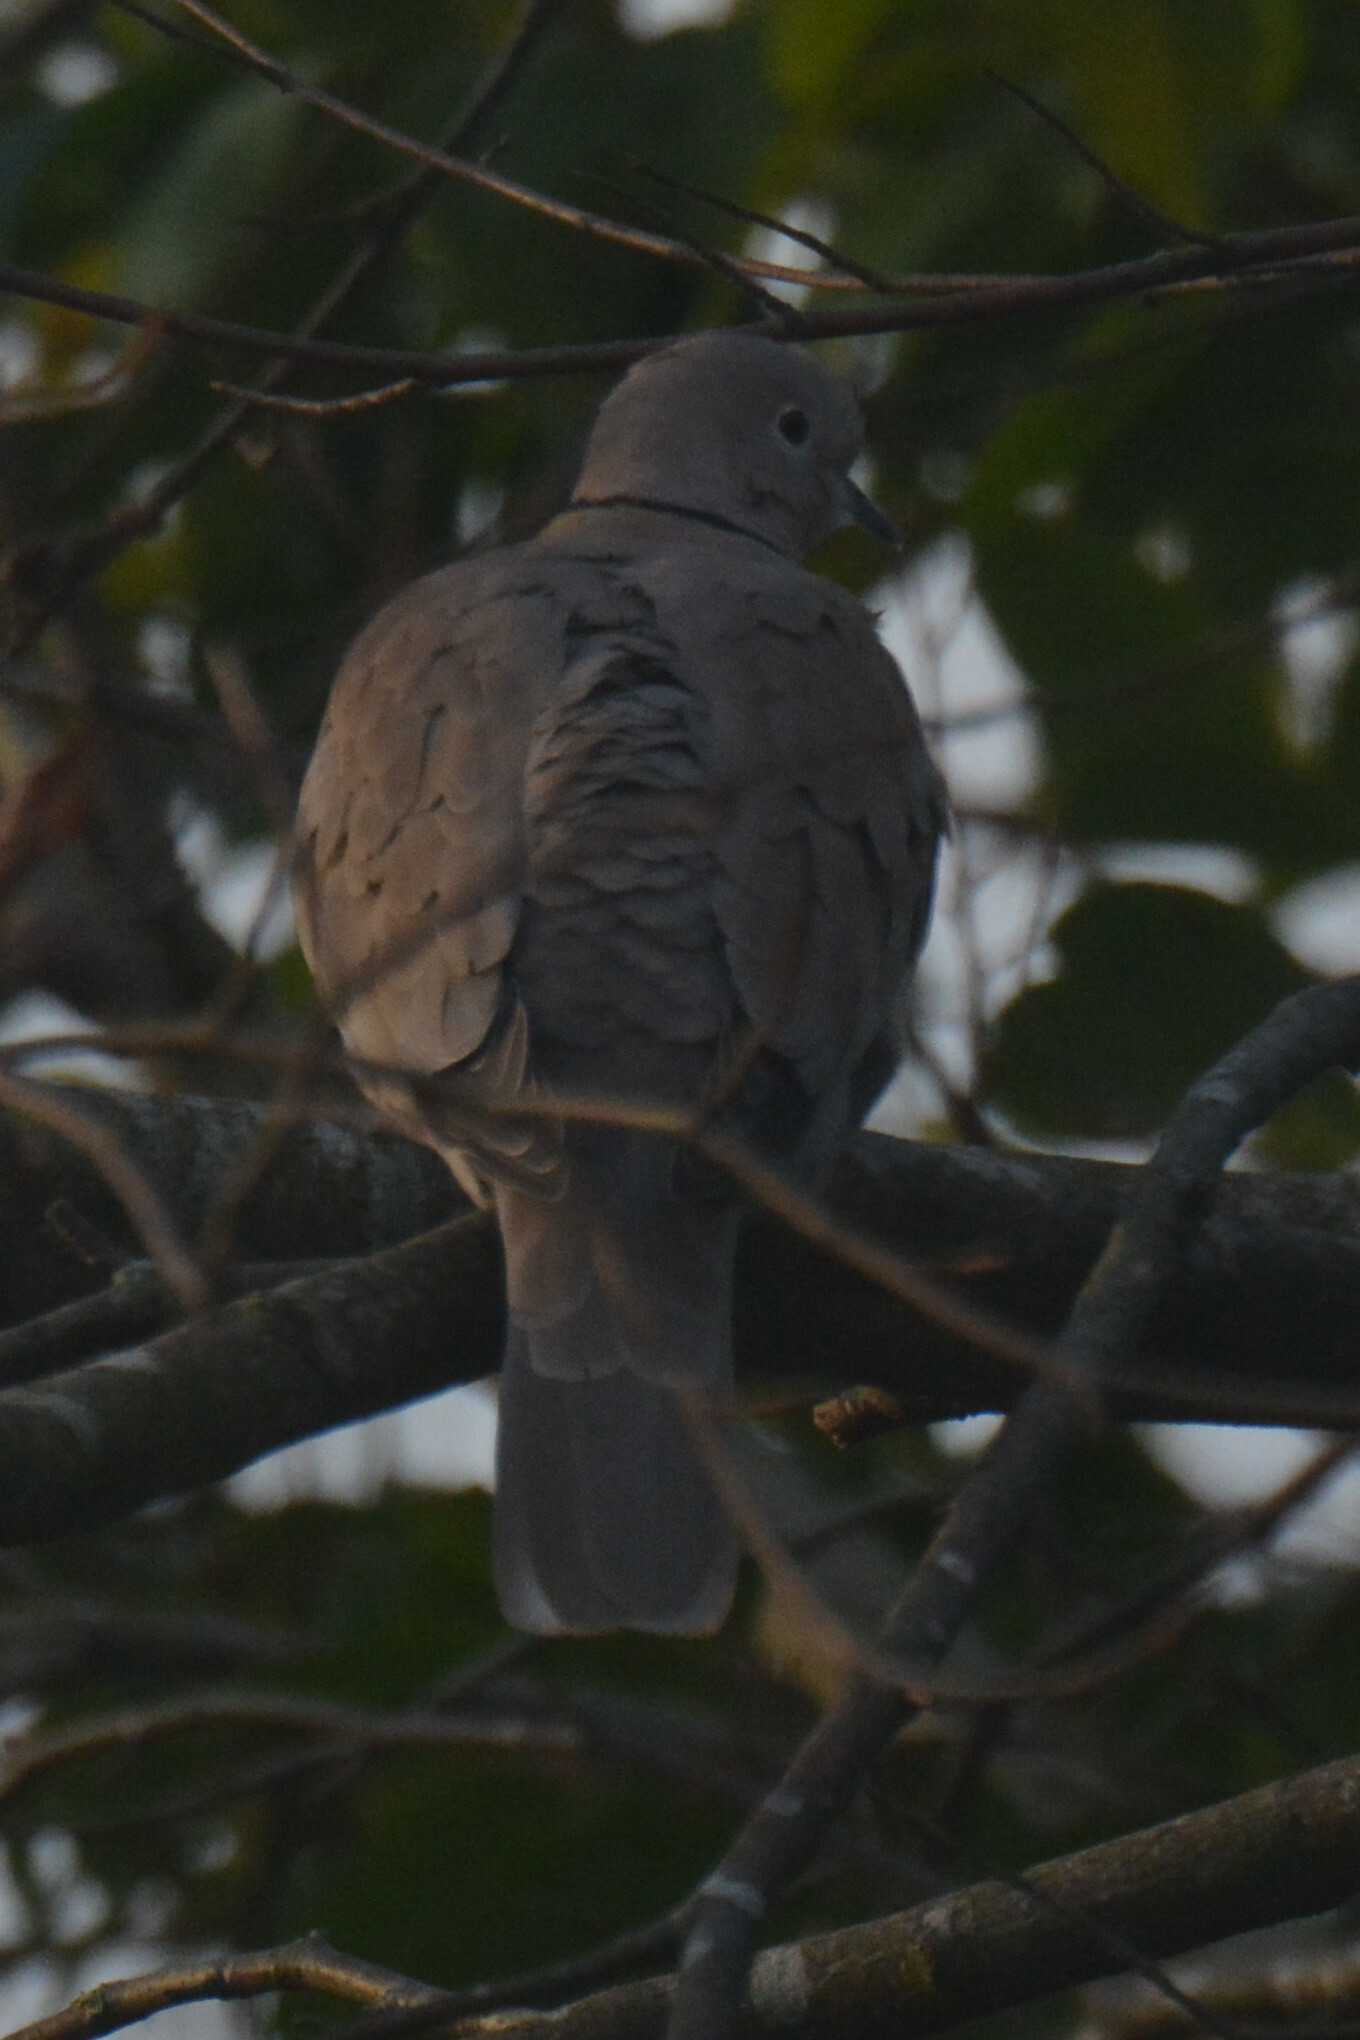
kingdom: Animalia
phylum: Chordata
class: Aves
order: Columbiformes
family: Columbidae
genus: Streptopelia
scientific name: Streptopelia decaocto
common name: Eurasian collared dove
